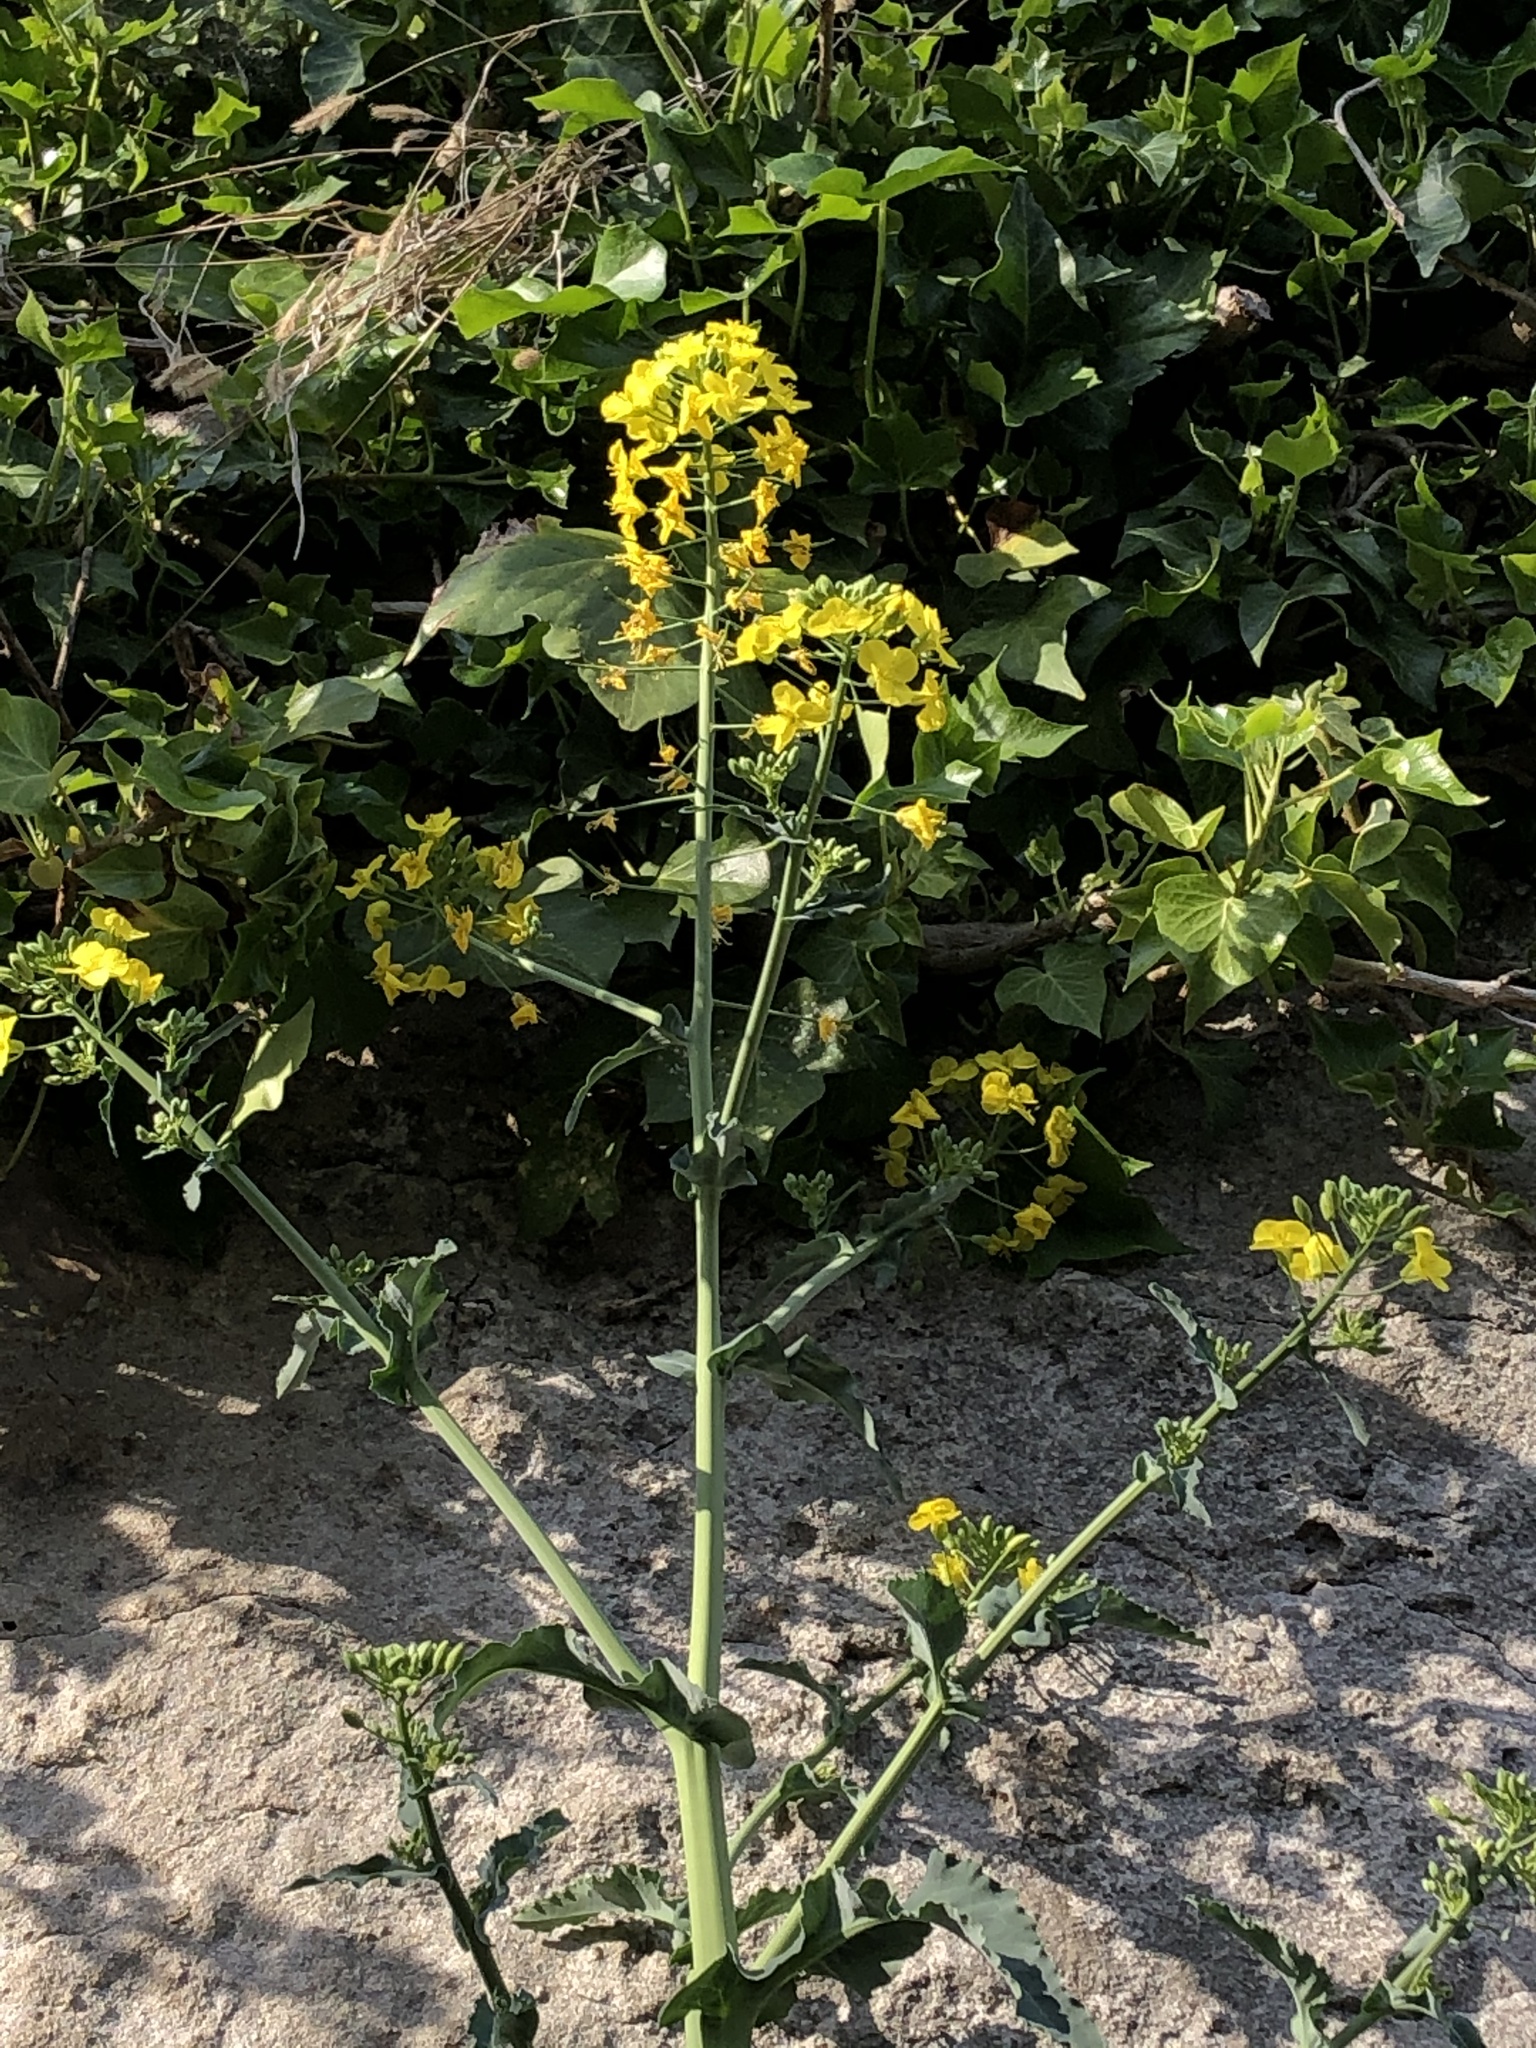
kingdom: Plantae
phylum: Tracheophyta
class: Magnoliopsida
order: Brassicales
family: Brassicaceae
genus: Brassica
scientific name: Brassica napus
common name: Rape
